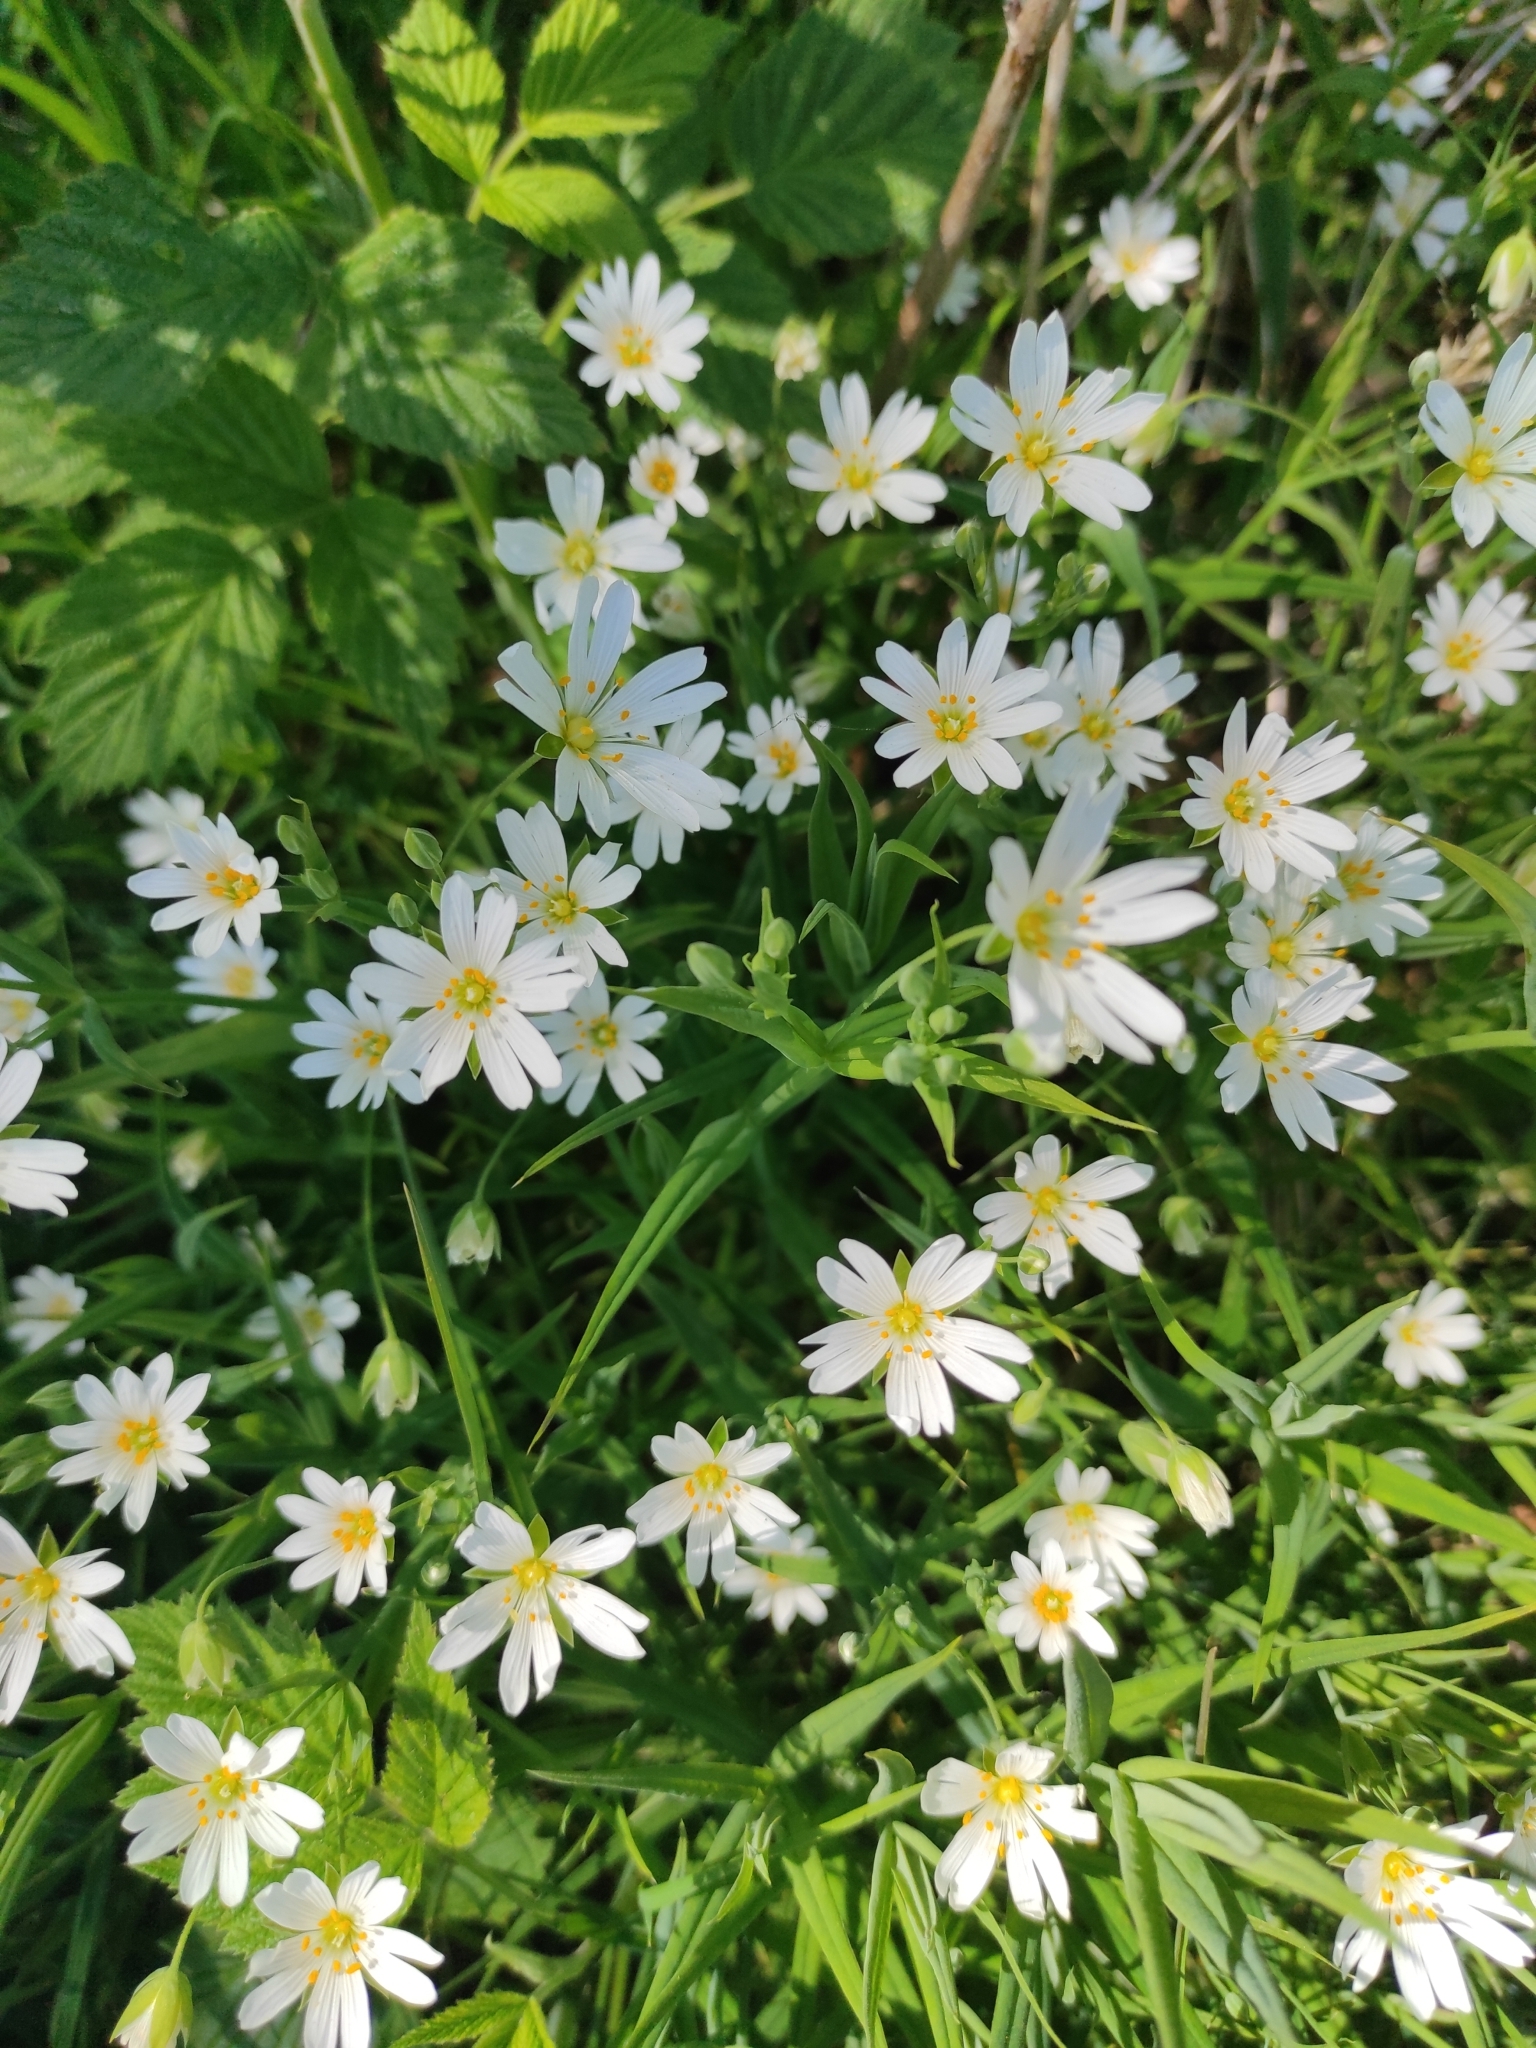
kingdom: Plantae
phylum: Tracheophyta
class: Magnoliopsida
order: Caryophyllales
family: Caryophyllaceae
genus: Rabelera
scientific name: Rabelera holostea
